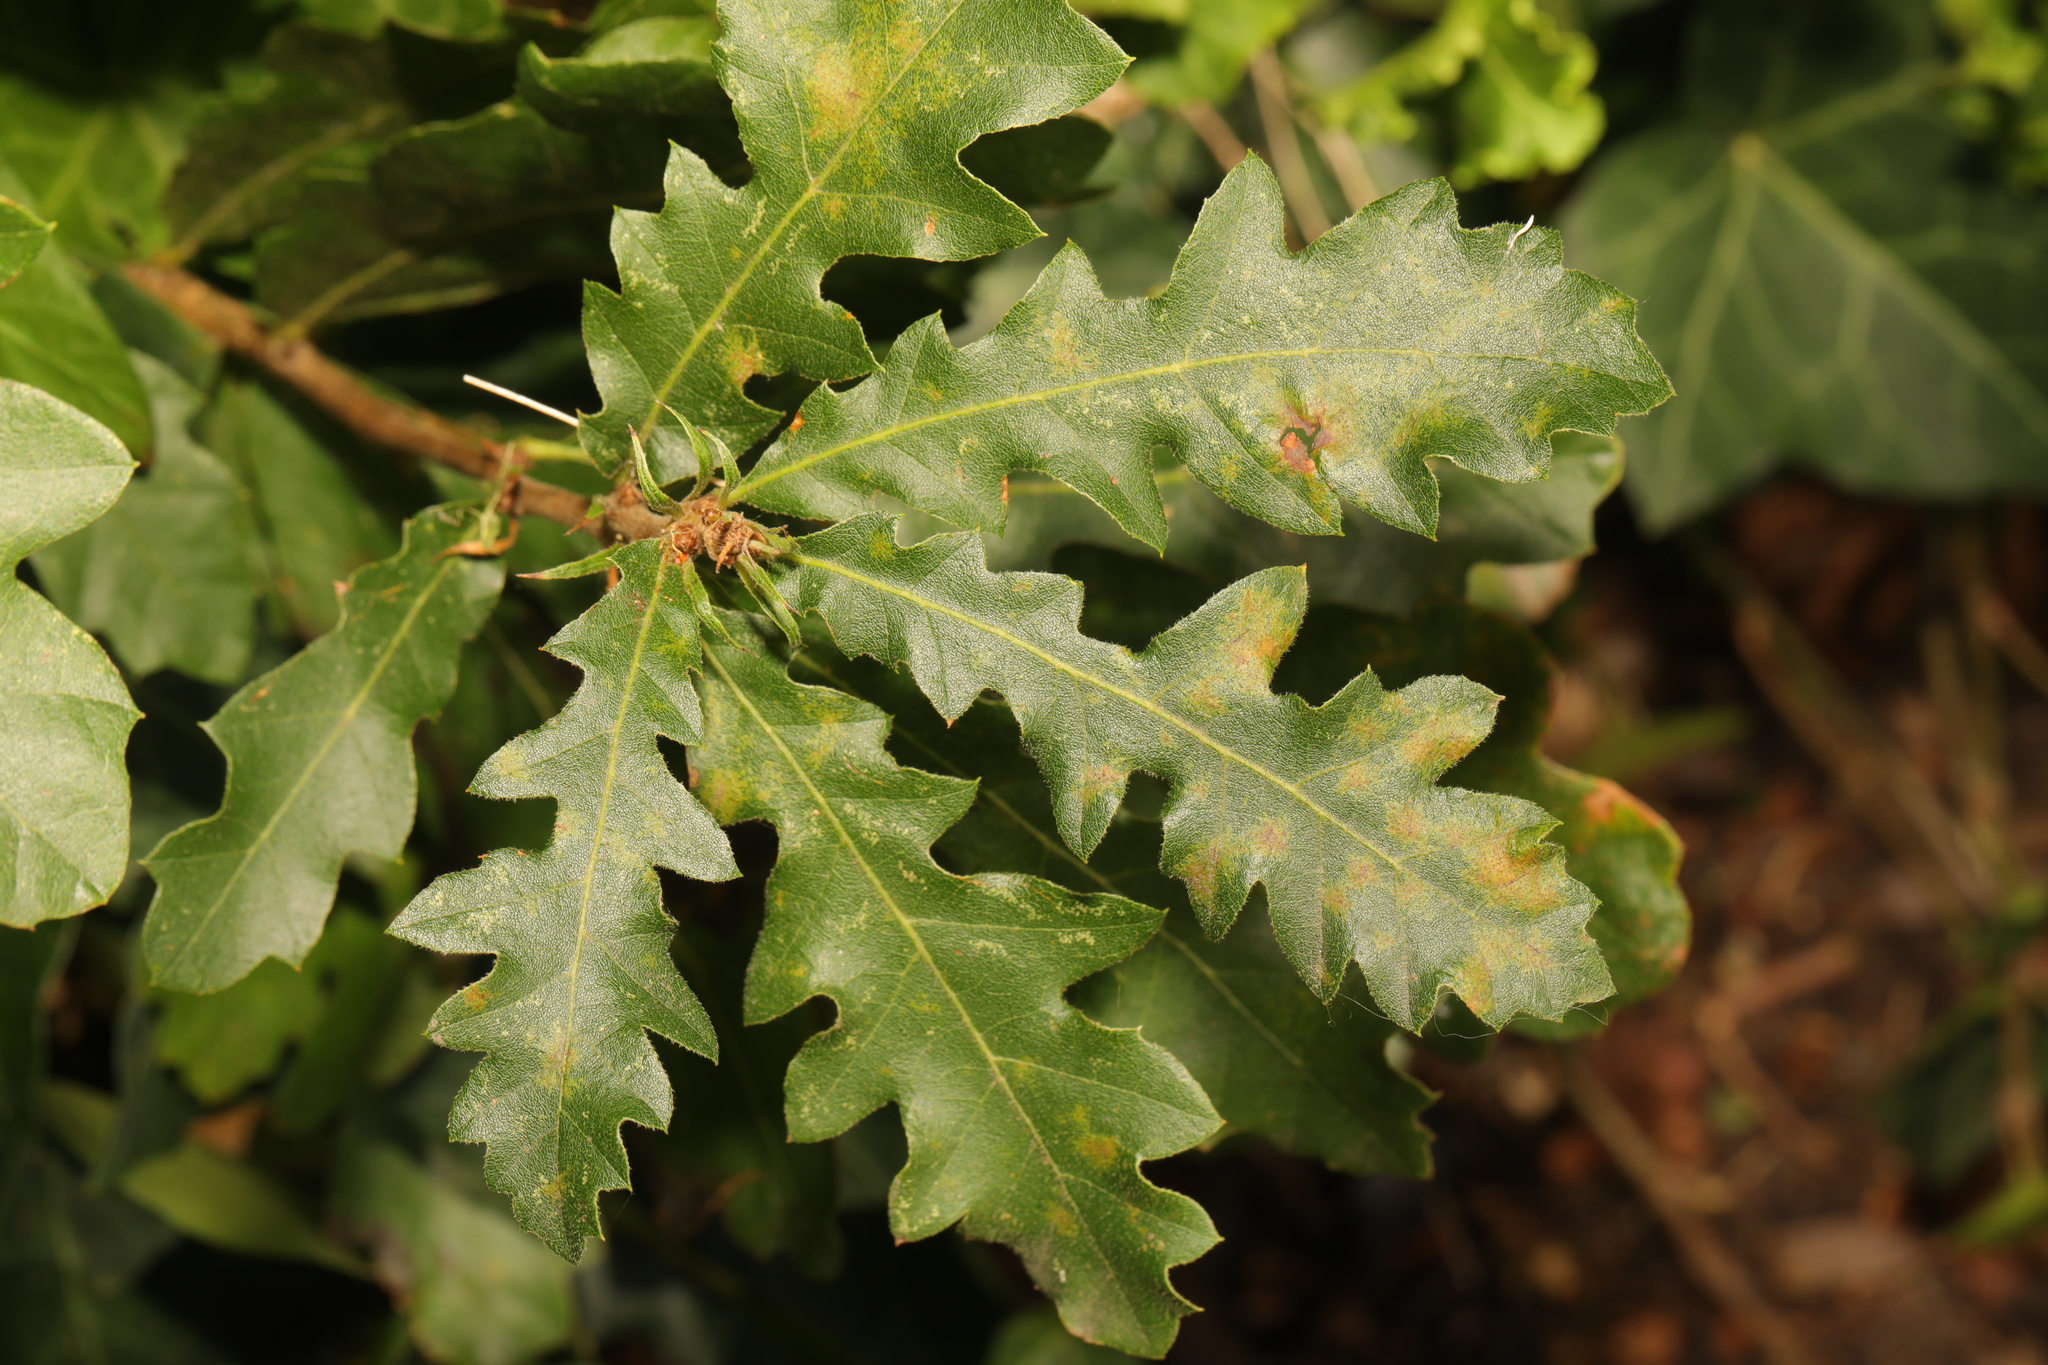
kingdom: Plantae
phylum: Tracheophyta
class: Magnoliopsida
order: Fagales
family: Fagaceae
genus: Quercus
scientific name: Quercus cerris
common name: Turkey oak
